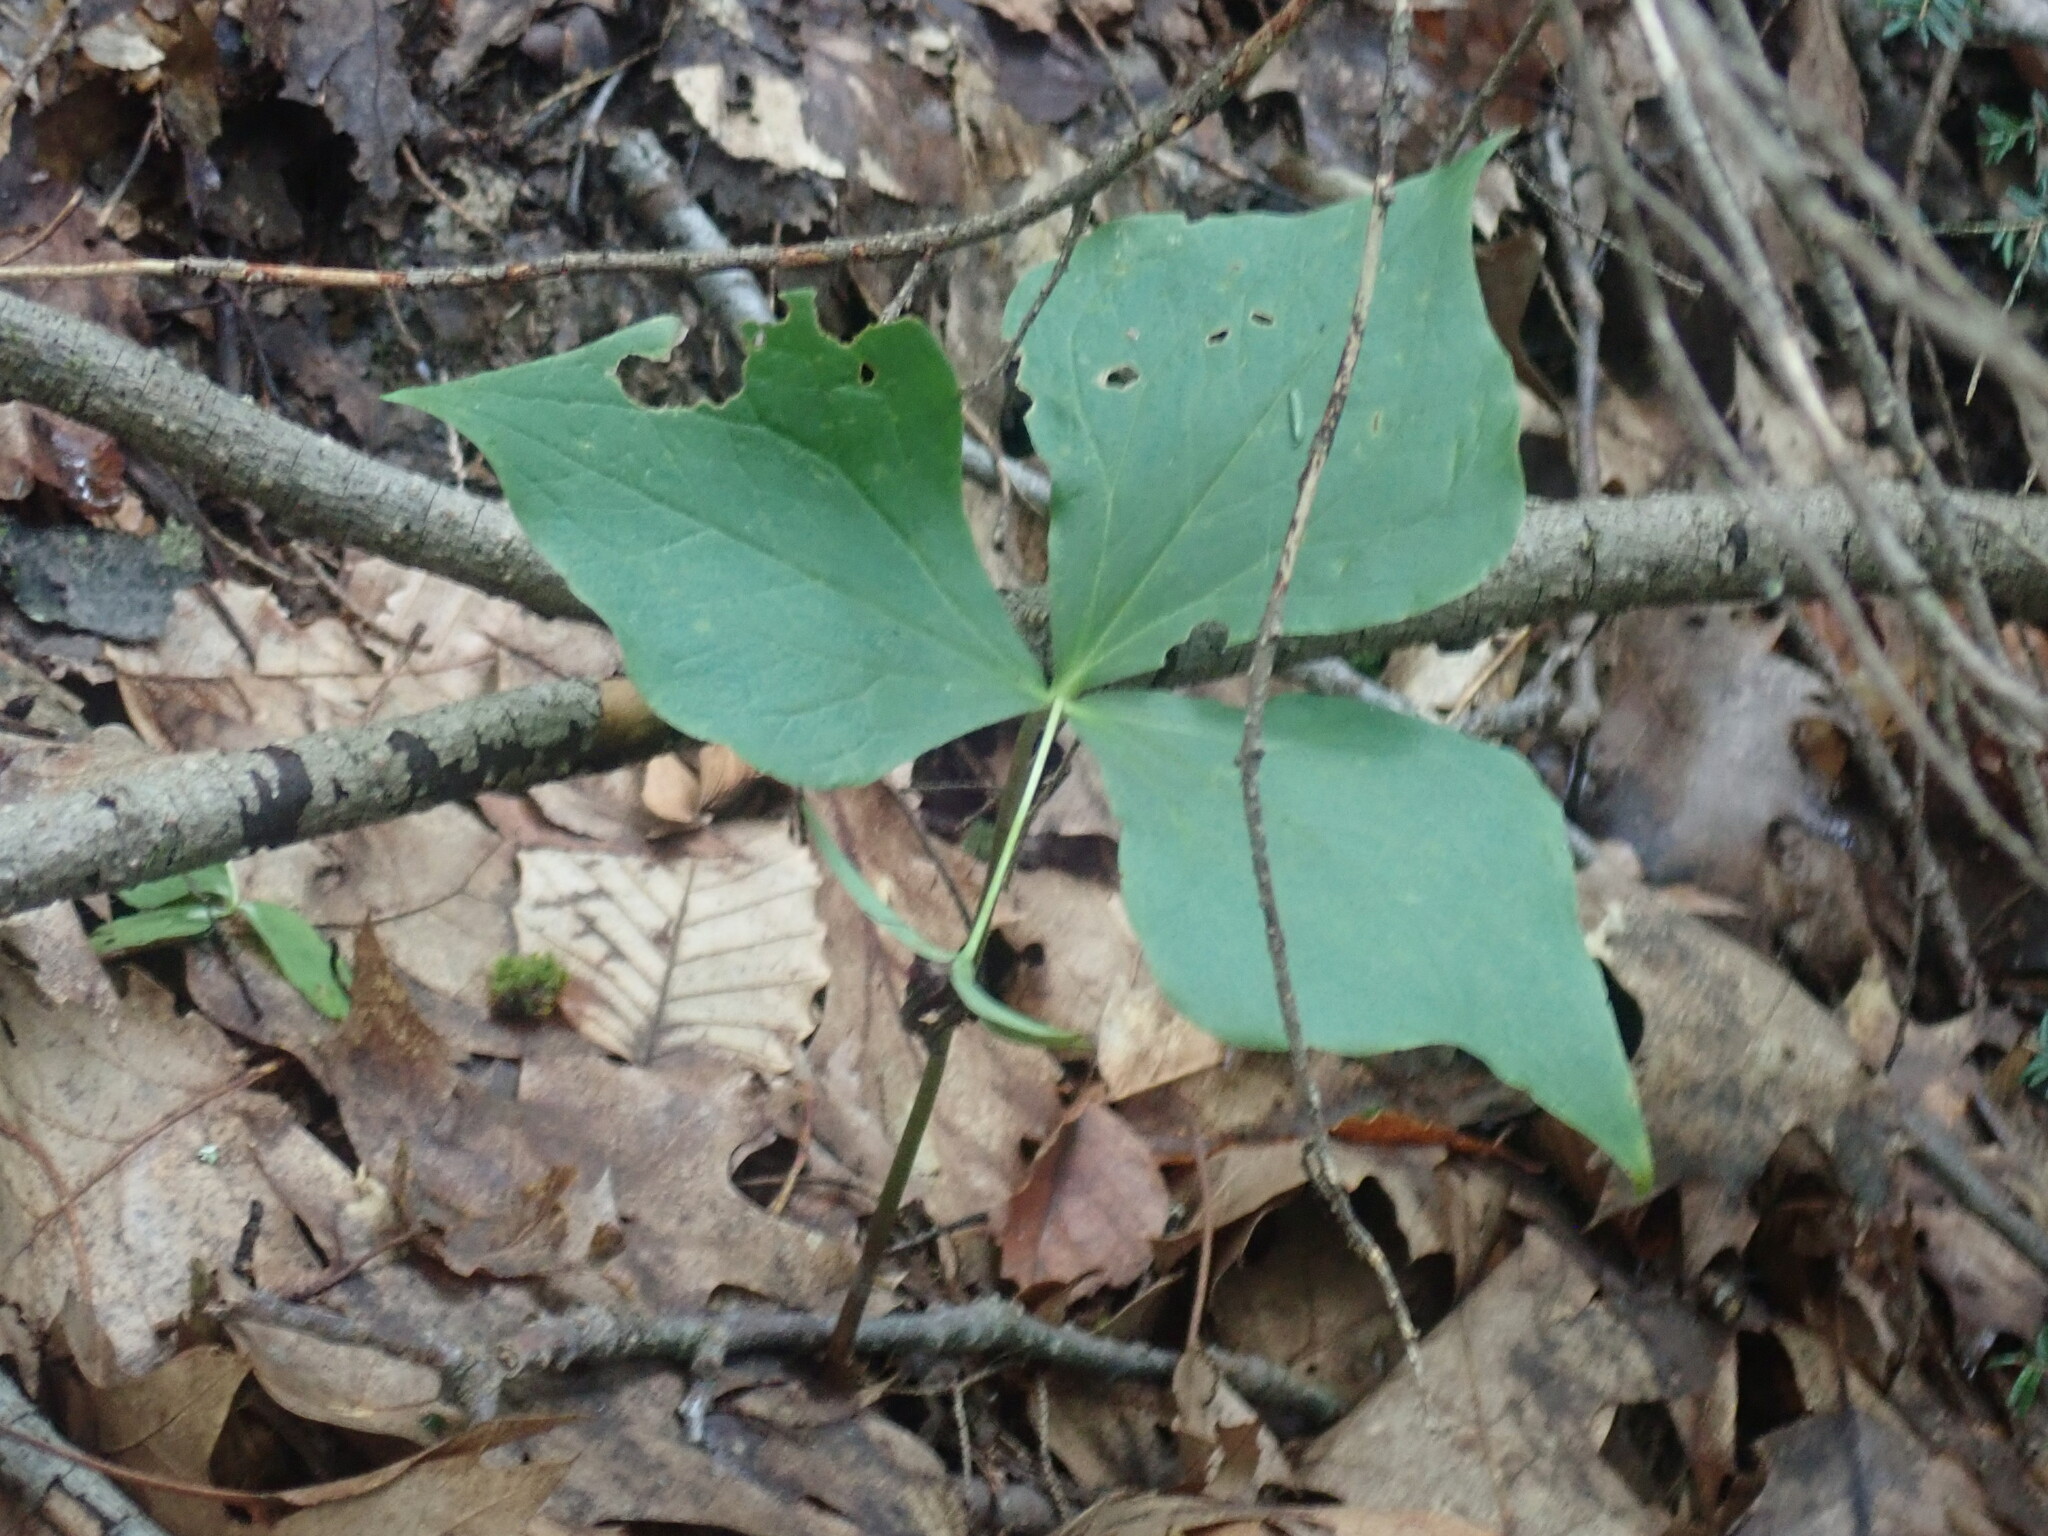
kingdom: Plantae
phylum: Tracheophyta
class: Liliopsida
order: Liliales
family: Melanthiaceae
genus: Trillium
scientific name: Trillium erectum
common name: Purple trillium
